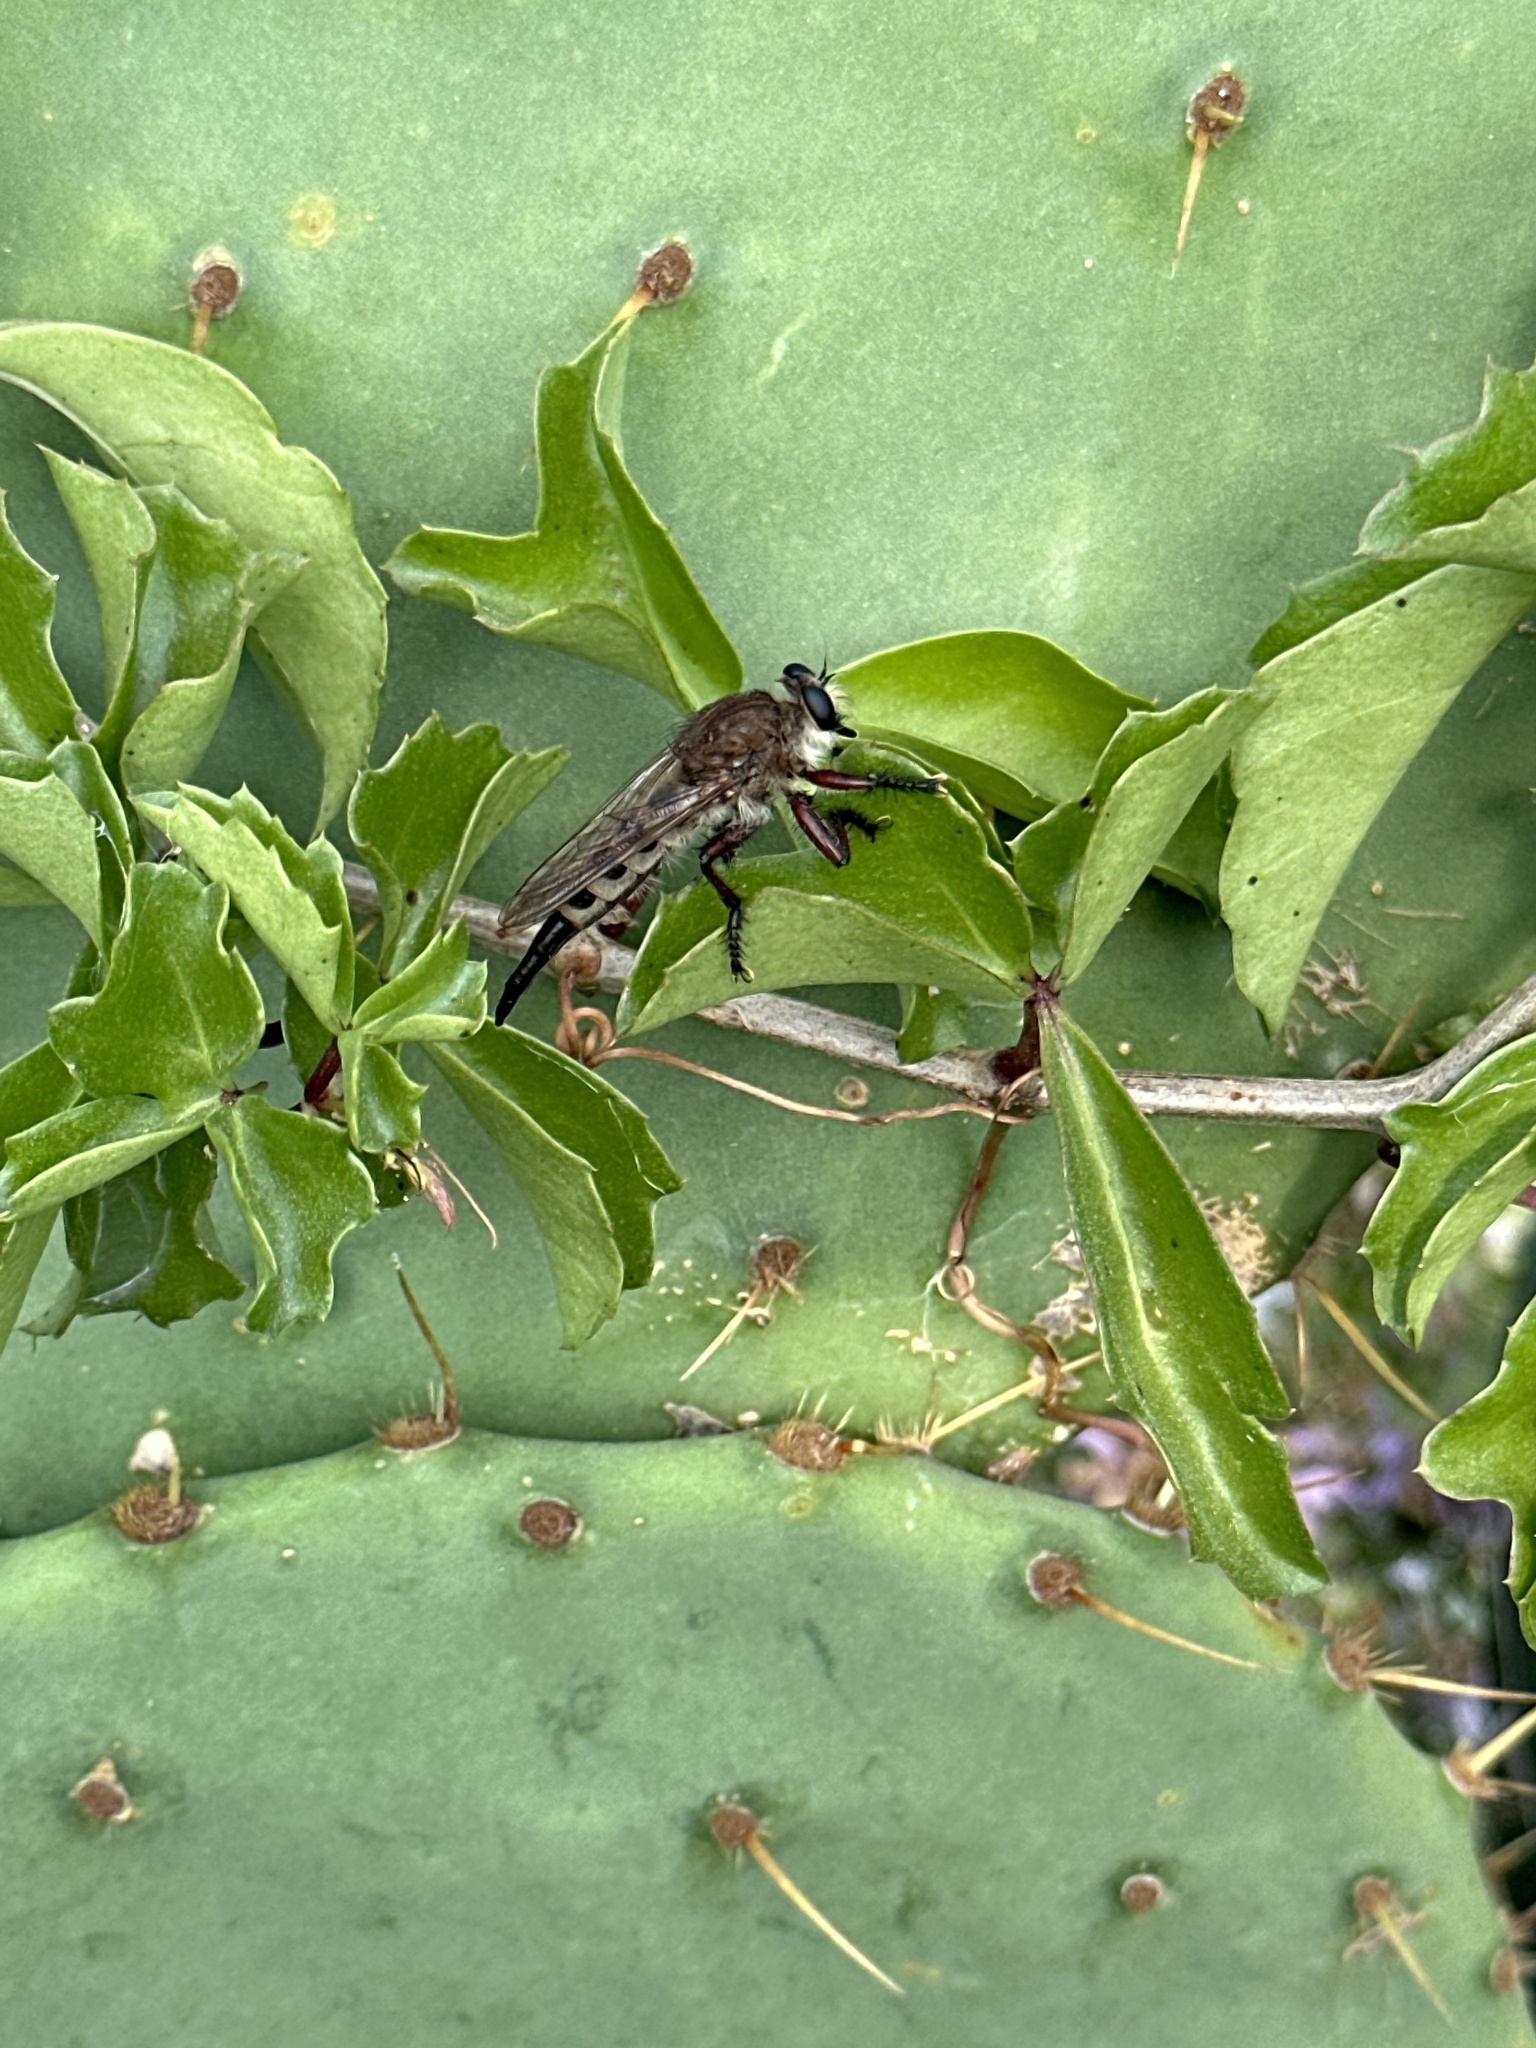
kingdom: Animalia
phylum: Arthropoda
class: Insecta
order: Diptera
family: Asilidae
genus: Promachus
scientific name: Promachus hinei
